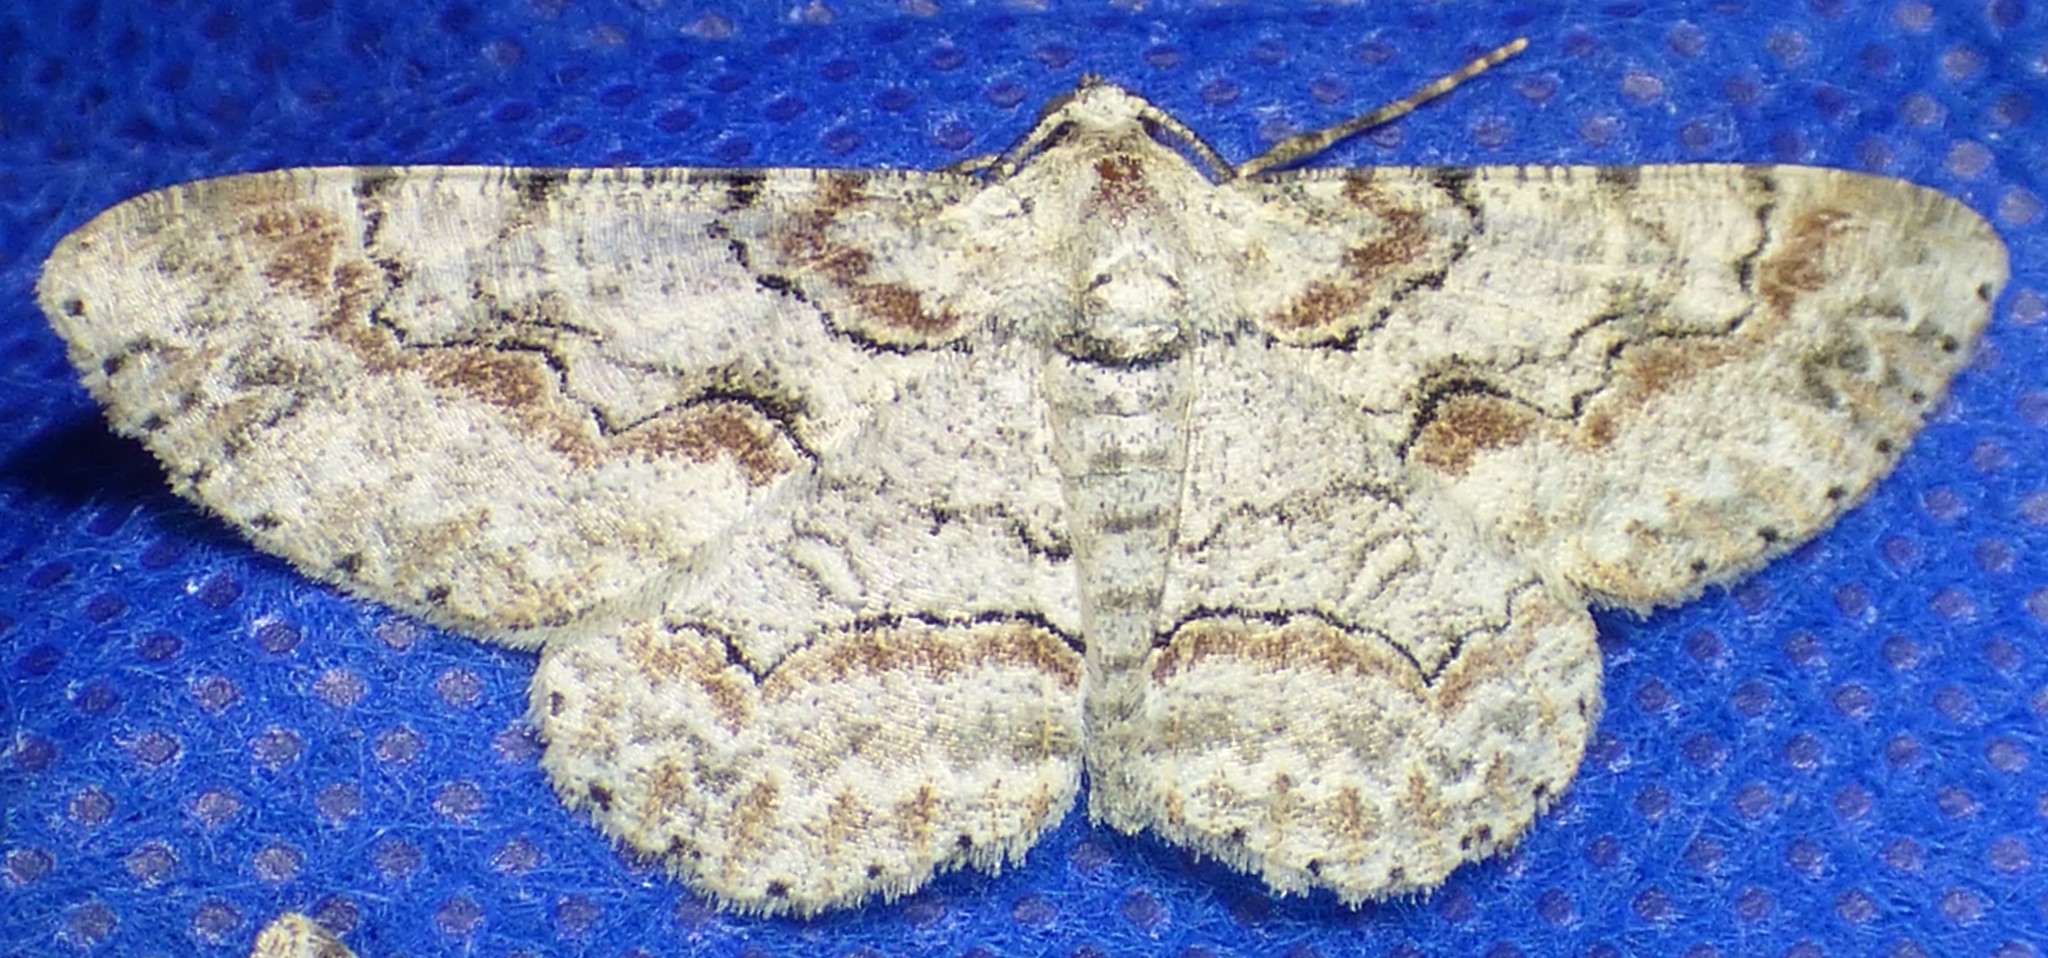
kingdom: Animalia
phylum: Arthropoda
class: Insecta
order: Lepidoptera
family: Geometridae
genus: Iridopsis
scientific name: Iridopsis defectaria
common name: Brown-shaded gray
